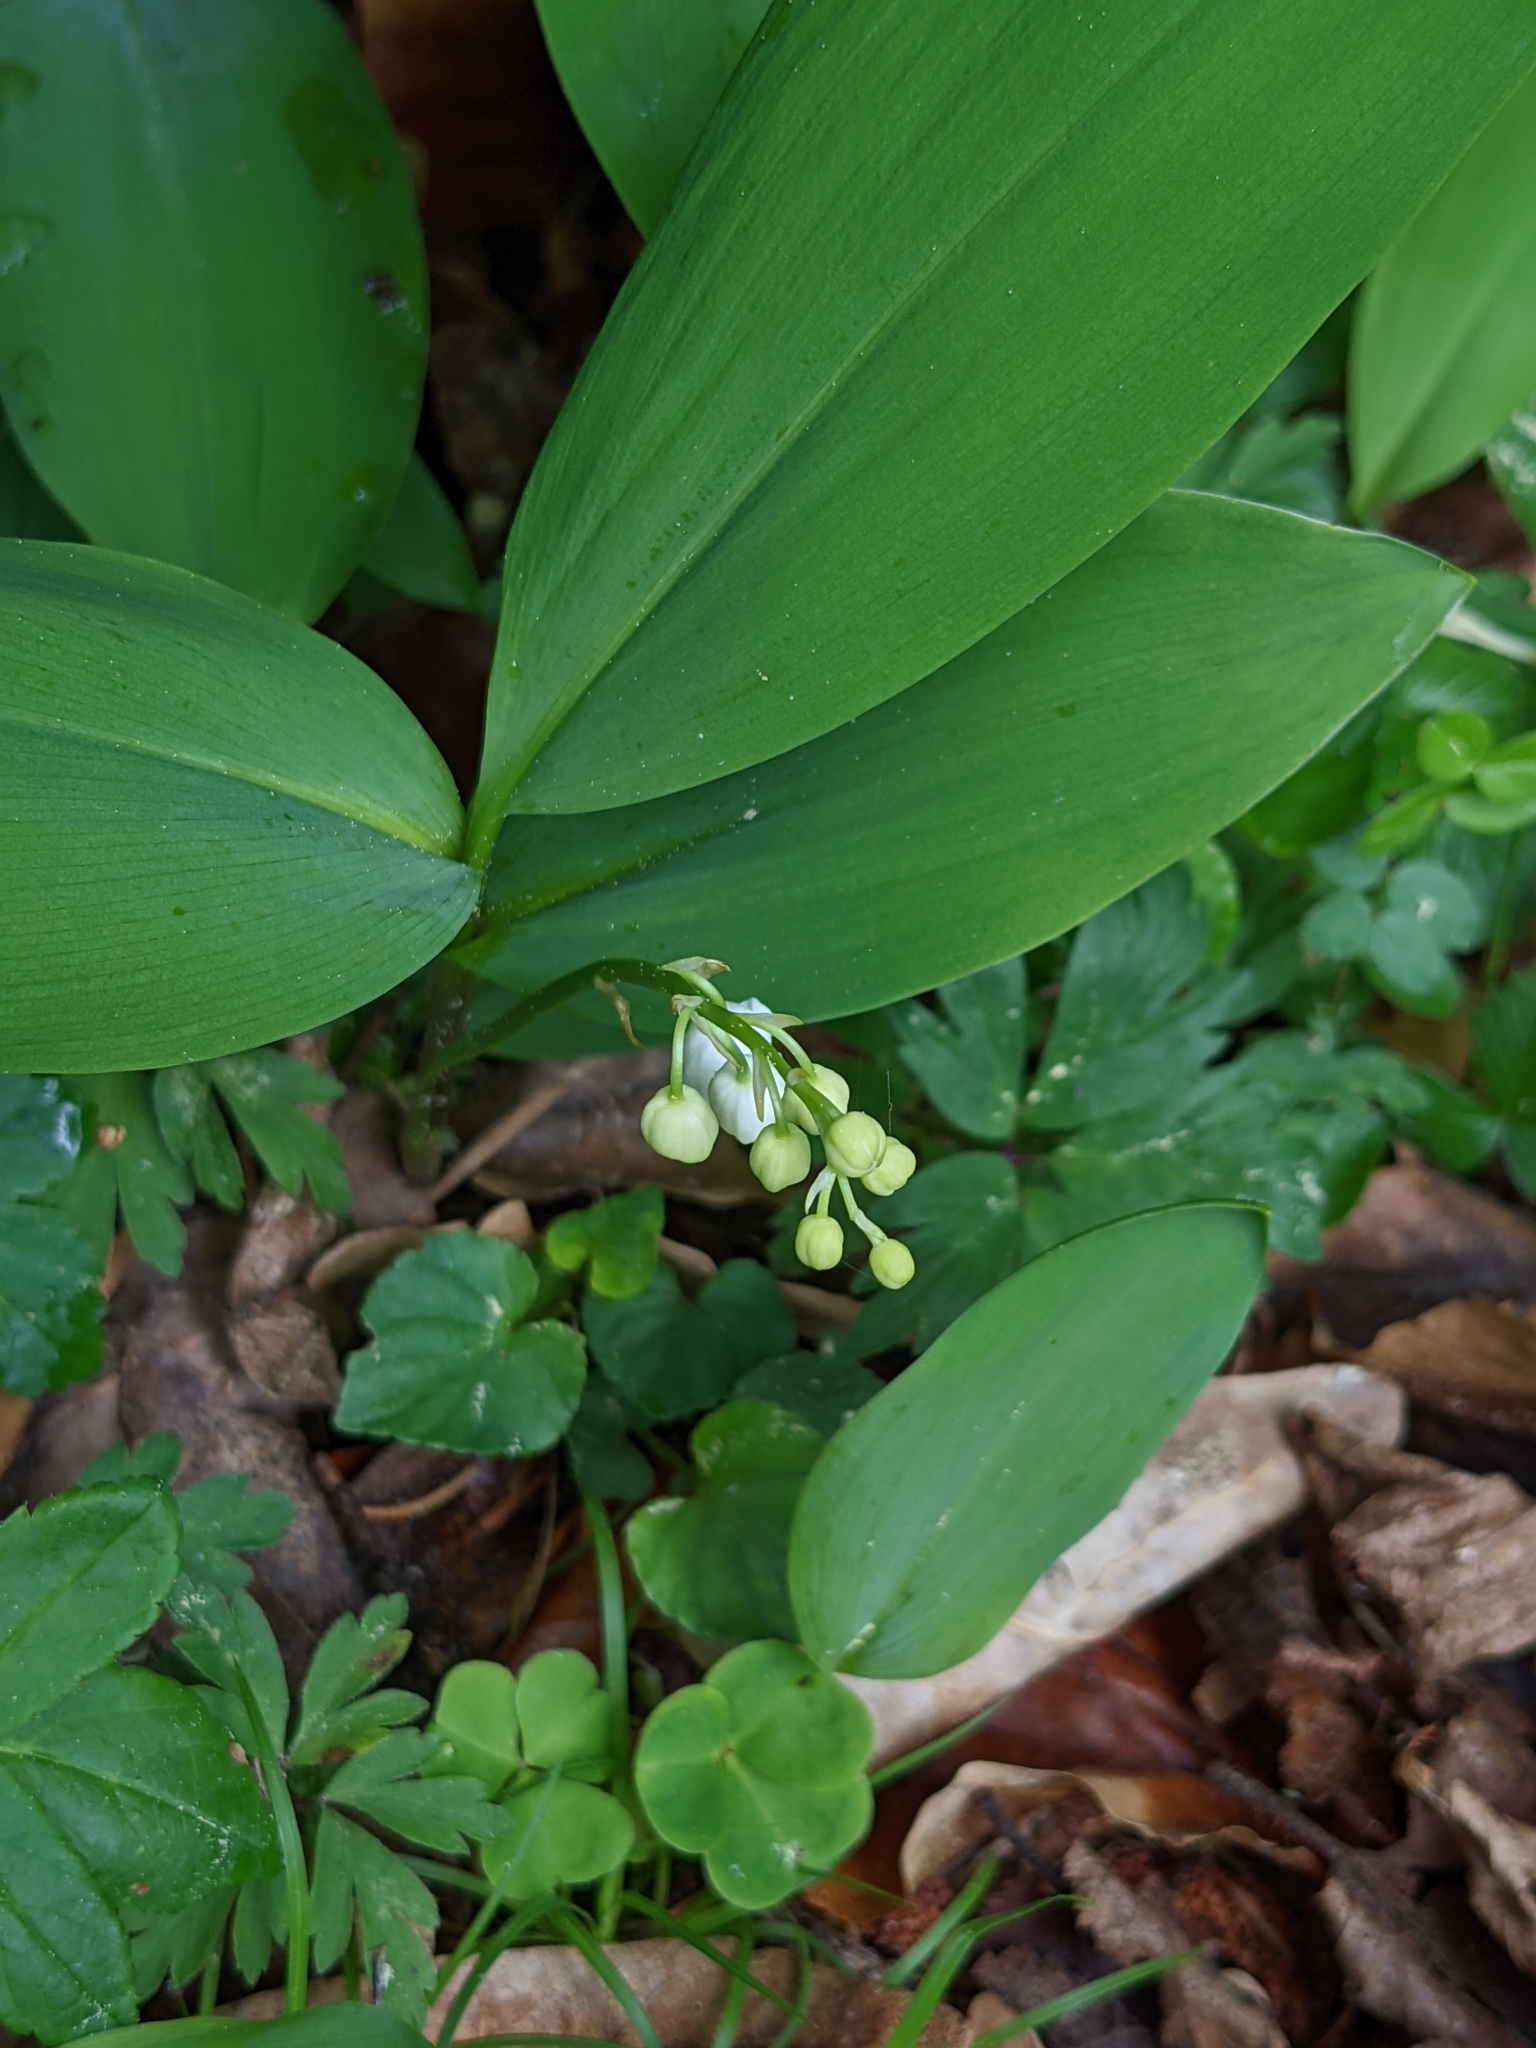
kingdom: Plantae
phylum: Tracheophyta
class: Liliopsida
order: Asparagales
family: Asparagaceae
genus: Convallaria
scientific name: Convallaria majalis
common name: Lily-of-the-valley
